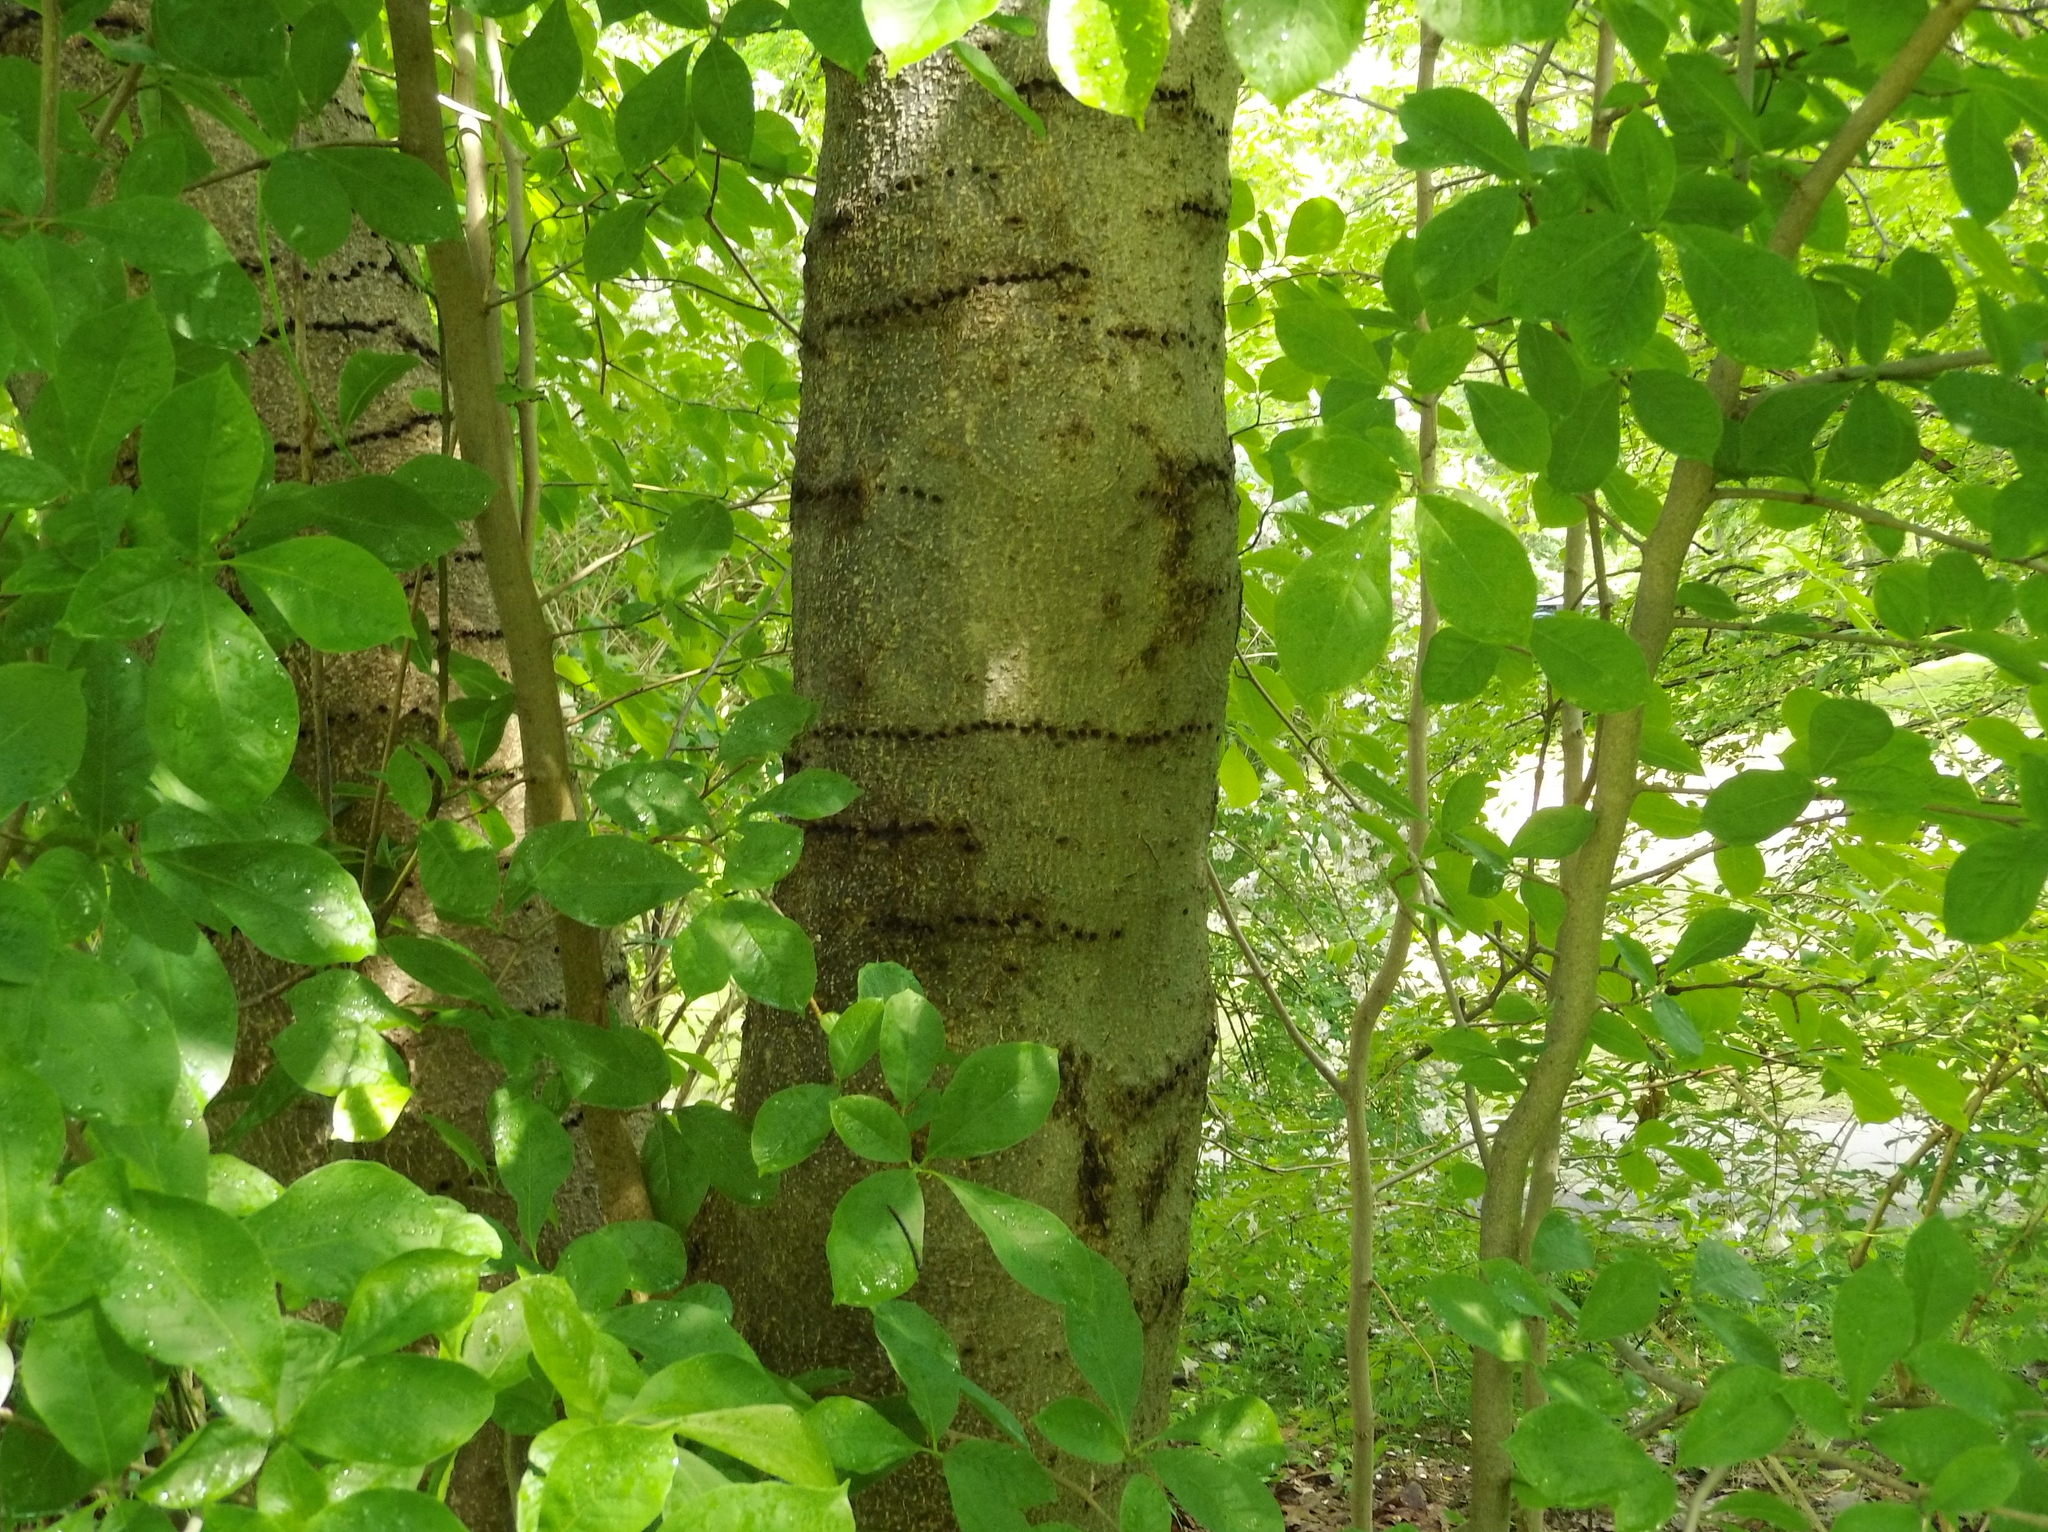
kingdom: Animalia
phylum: Chordata
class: Aves
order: Piciformes
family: Picidae
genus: Sphyrapicus
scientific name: Sphyrapicus varius
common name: Yellow-bellied sapsucker
